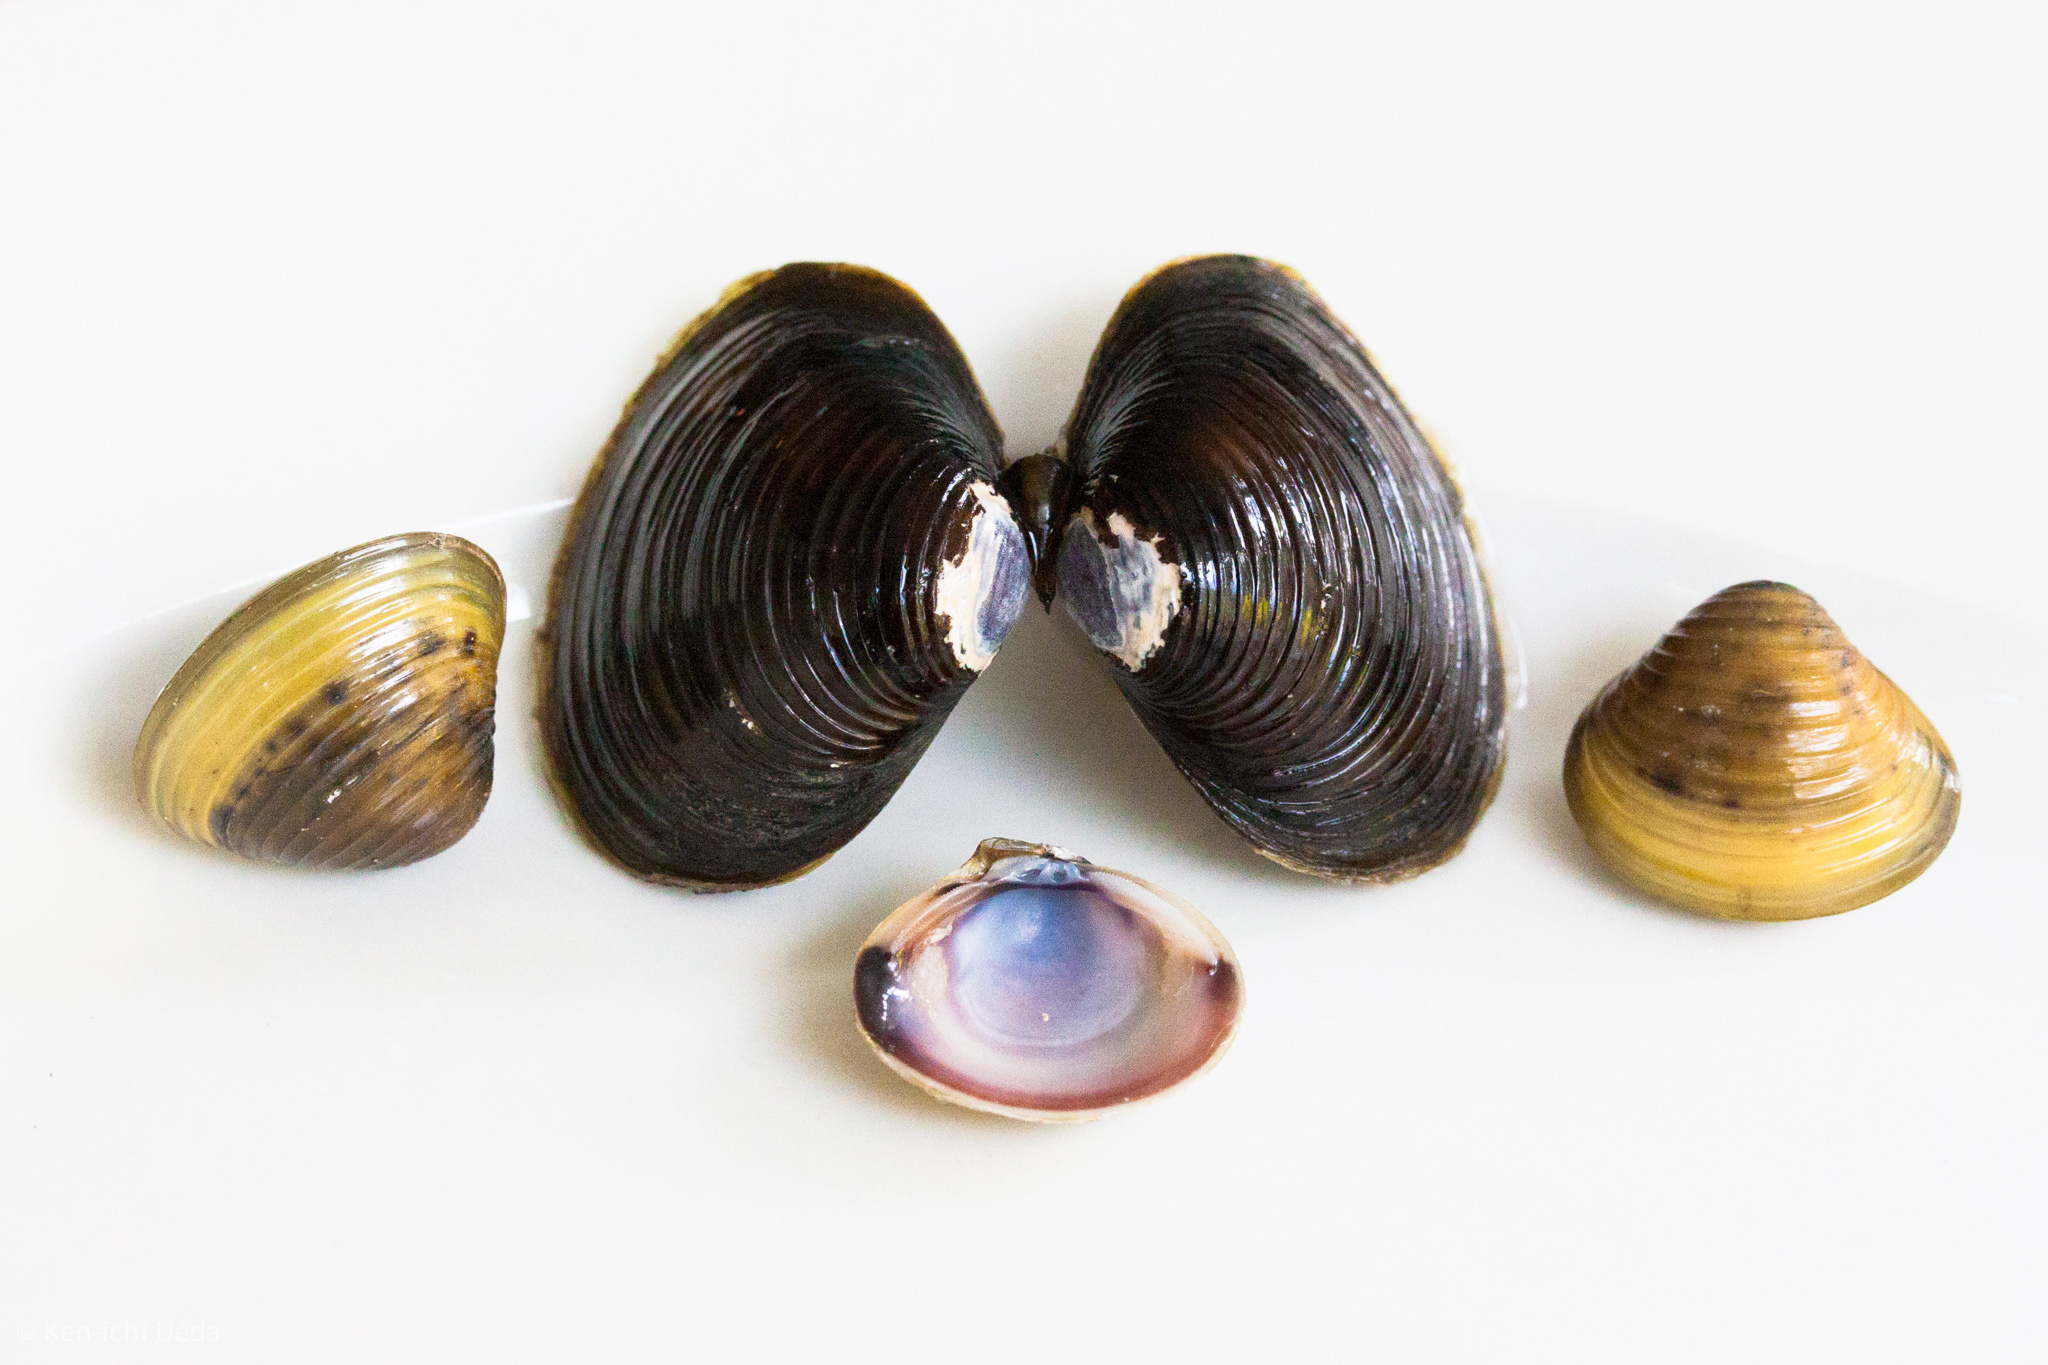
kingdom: Animalia
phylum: Mollusca
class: Bivalvia
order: Venerida
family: Cyrenidae
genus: Corbicula
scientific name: Corbicula fluminea
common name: Asian clam
